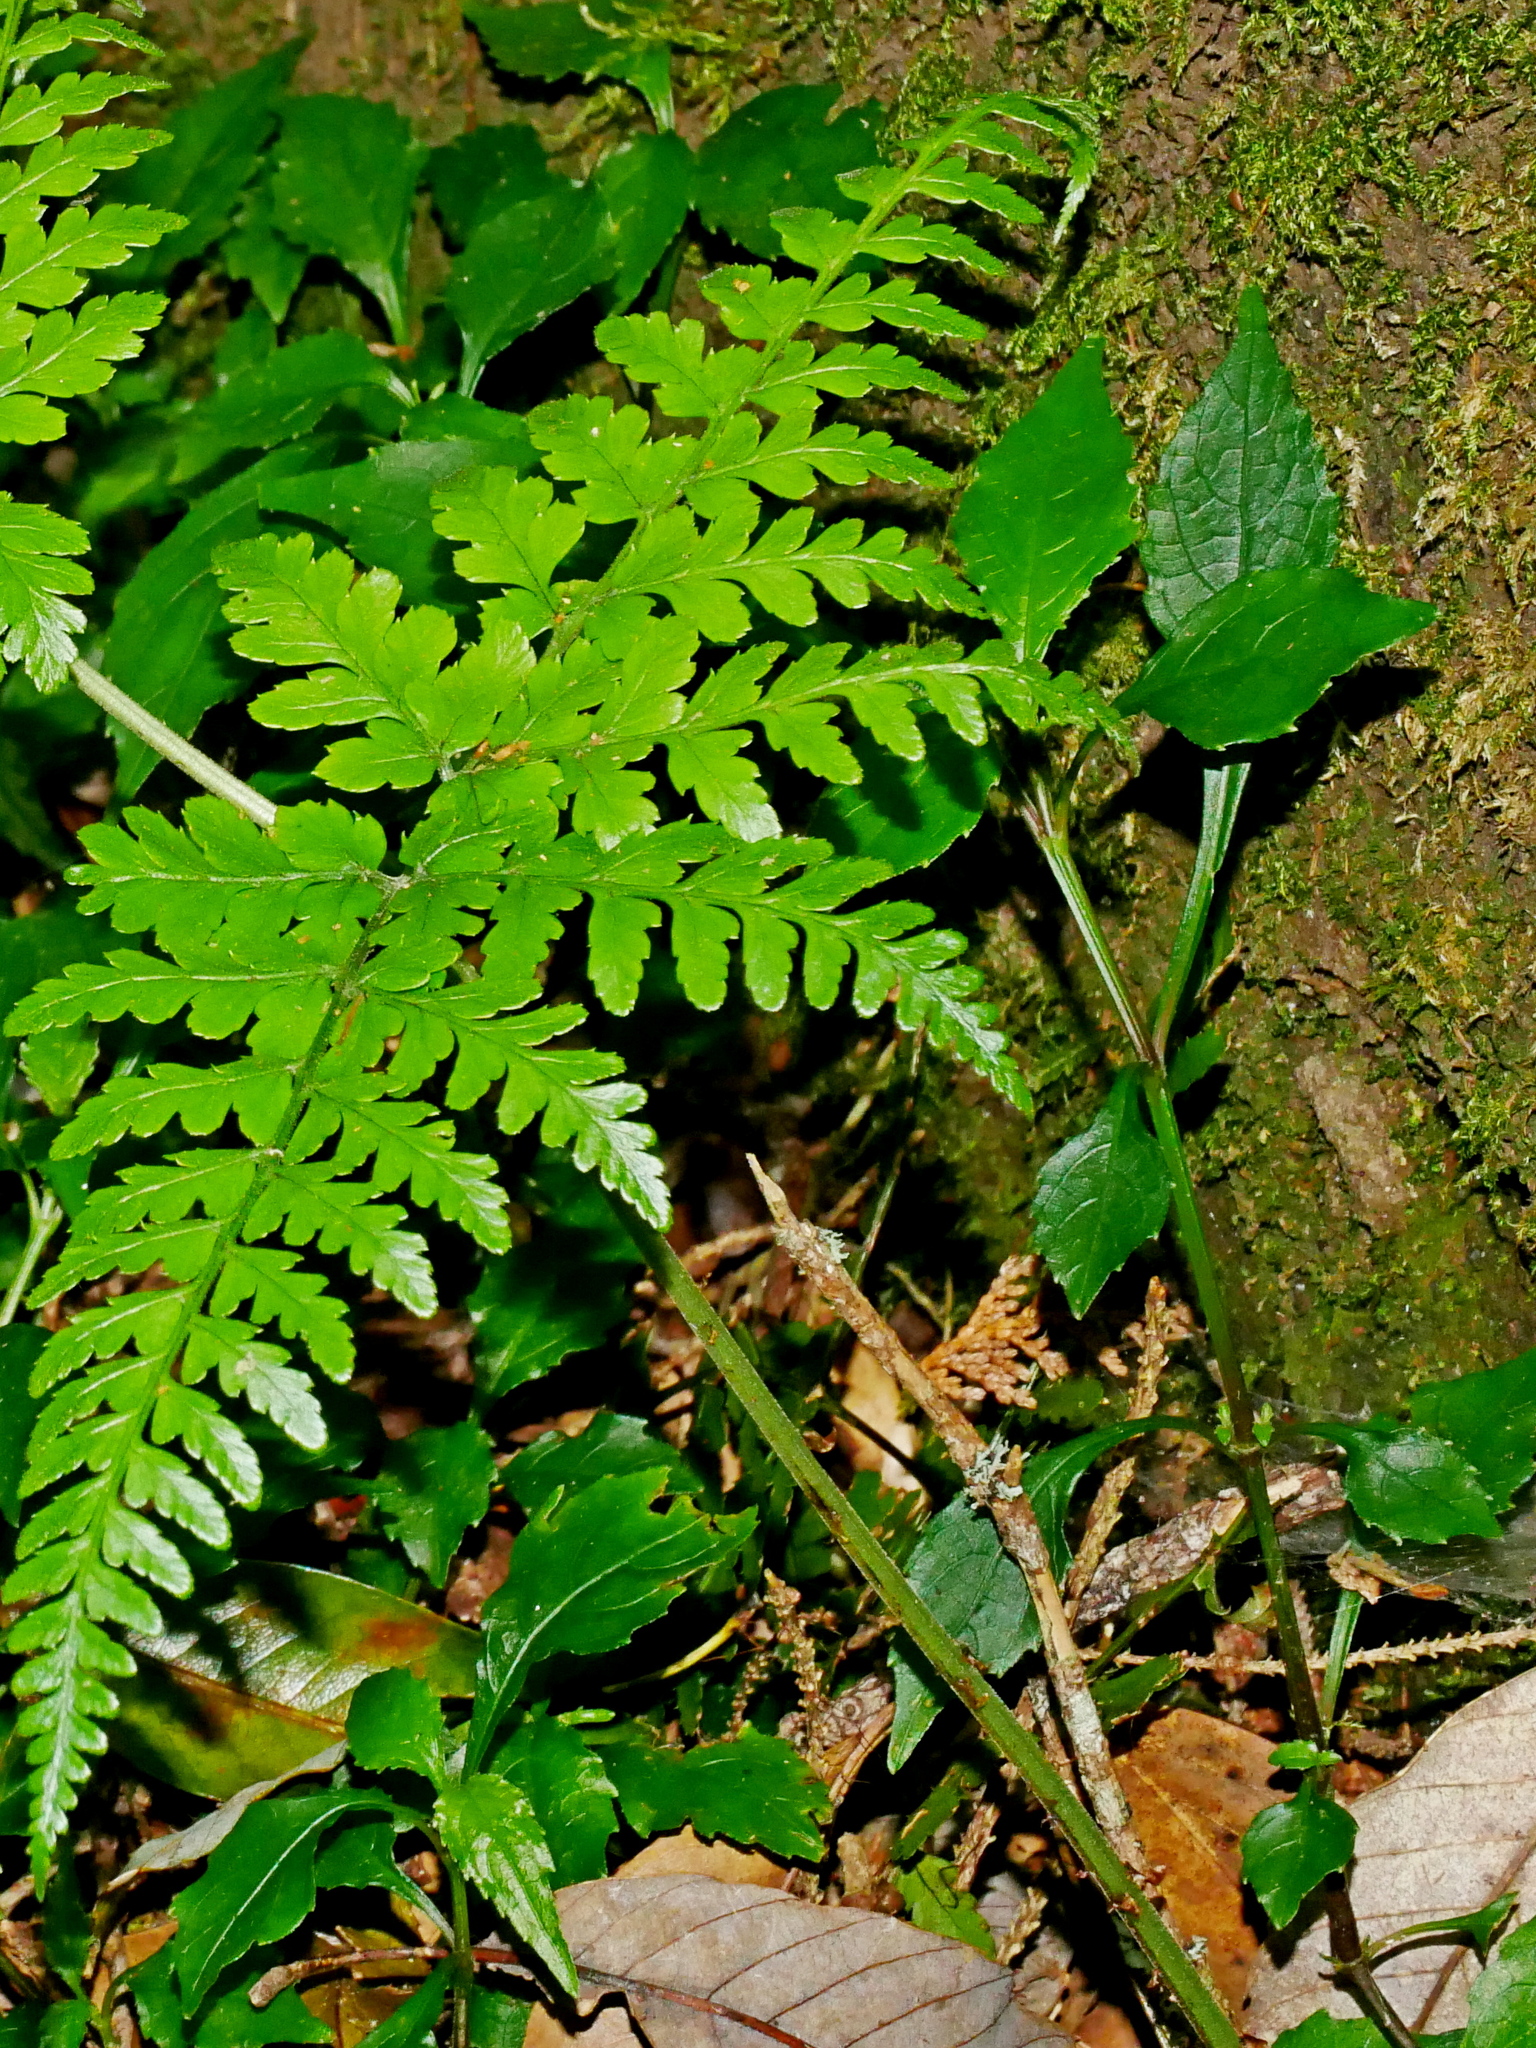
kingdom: Plantae
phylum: Tracheophyta
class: Magnoliopsida
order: Lamiales
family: Acanthaceae
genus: Strobilanthes
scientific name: Strobilanthes flexicaulis
